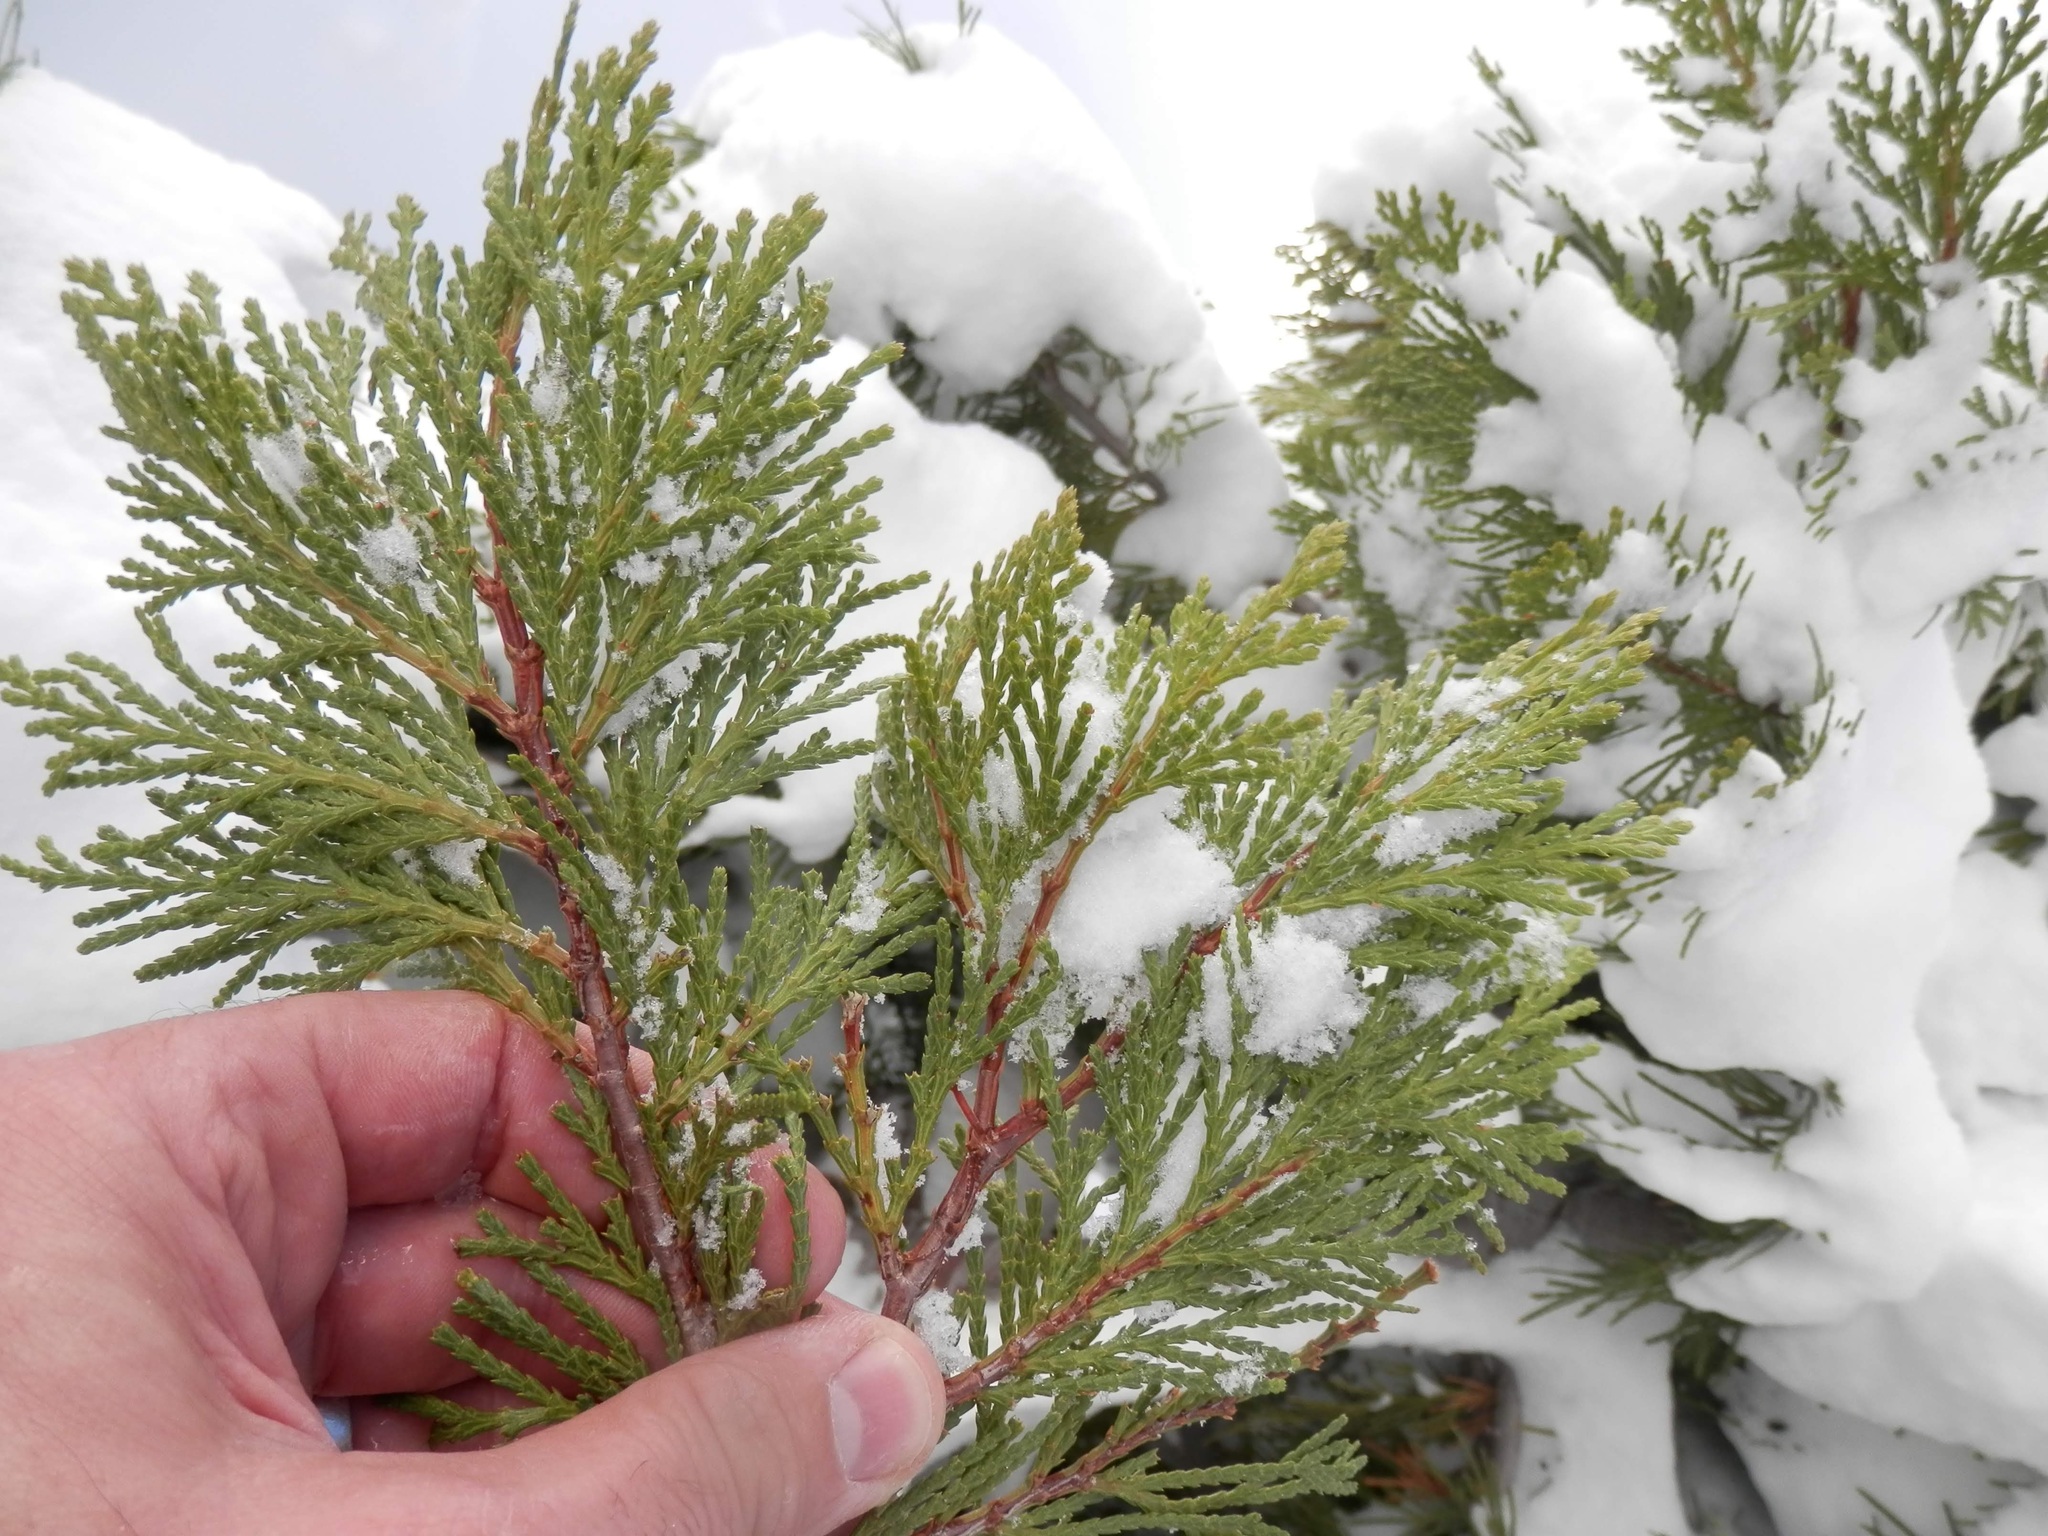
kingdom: Plantae
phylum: Tracheophyta
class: Pinopsida
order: Pinales
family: Cupressaceae
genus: Calocedrus
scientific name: Calocedrus decurrens
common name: Californian incense-cedar
